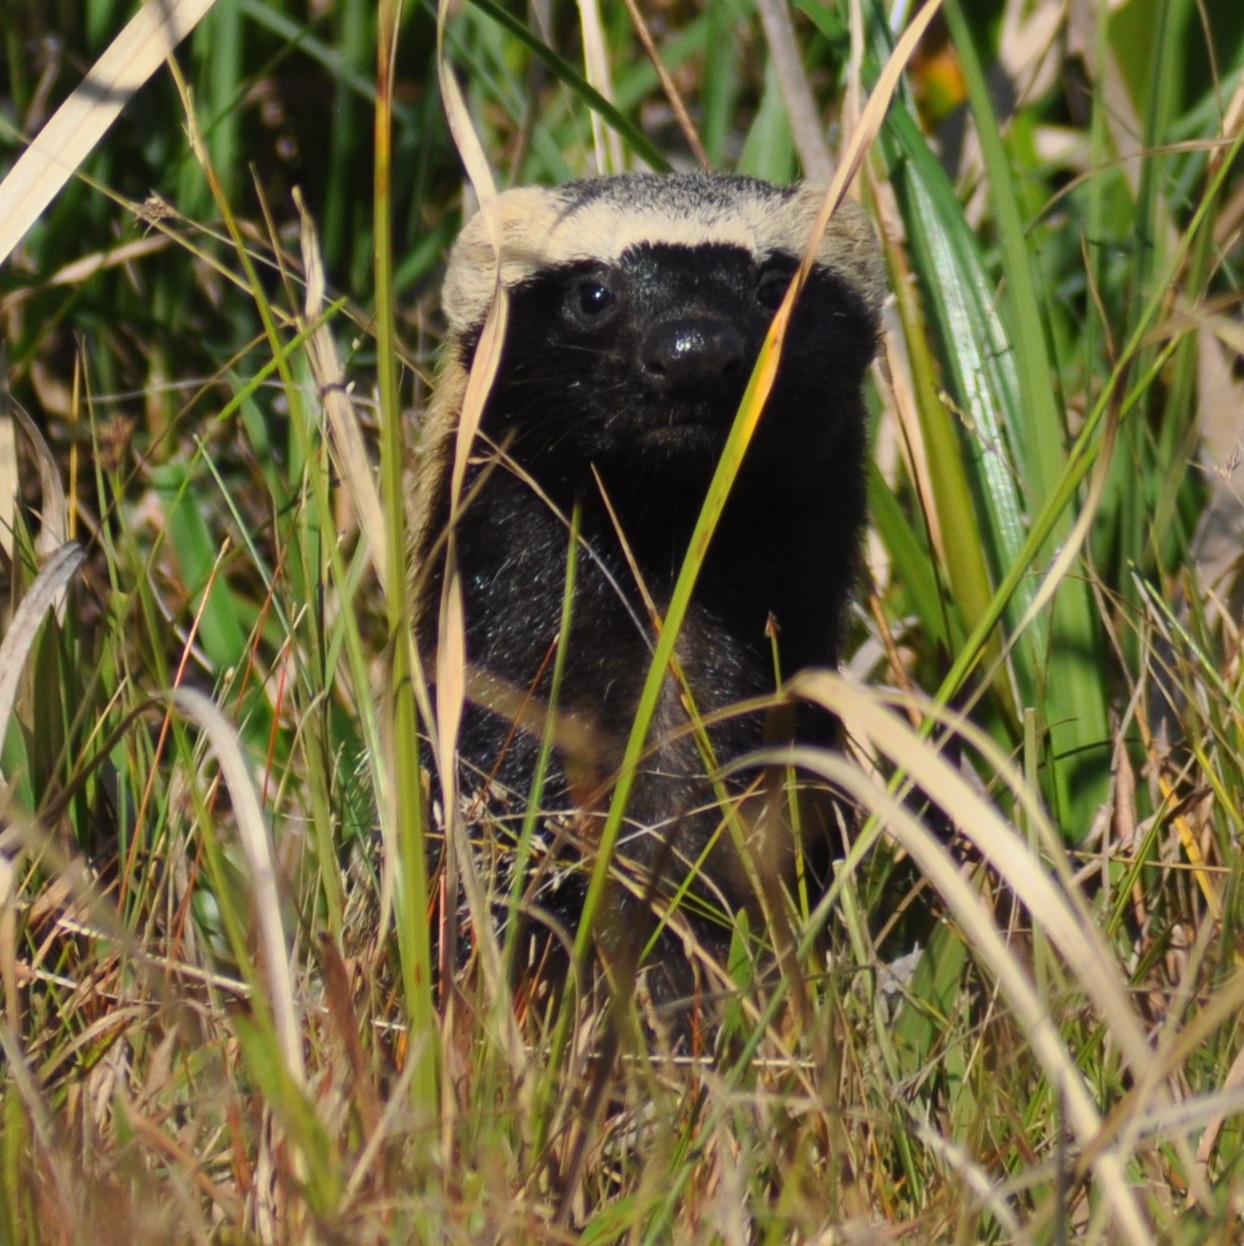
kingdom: Animalia
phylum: Chordata
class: Mammalia
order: Carnivora
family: Mustelidae
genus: Galictis
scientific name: Galictis cuja
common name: Lesser grison
